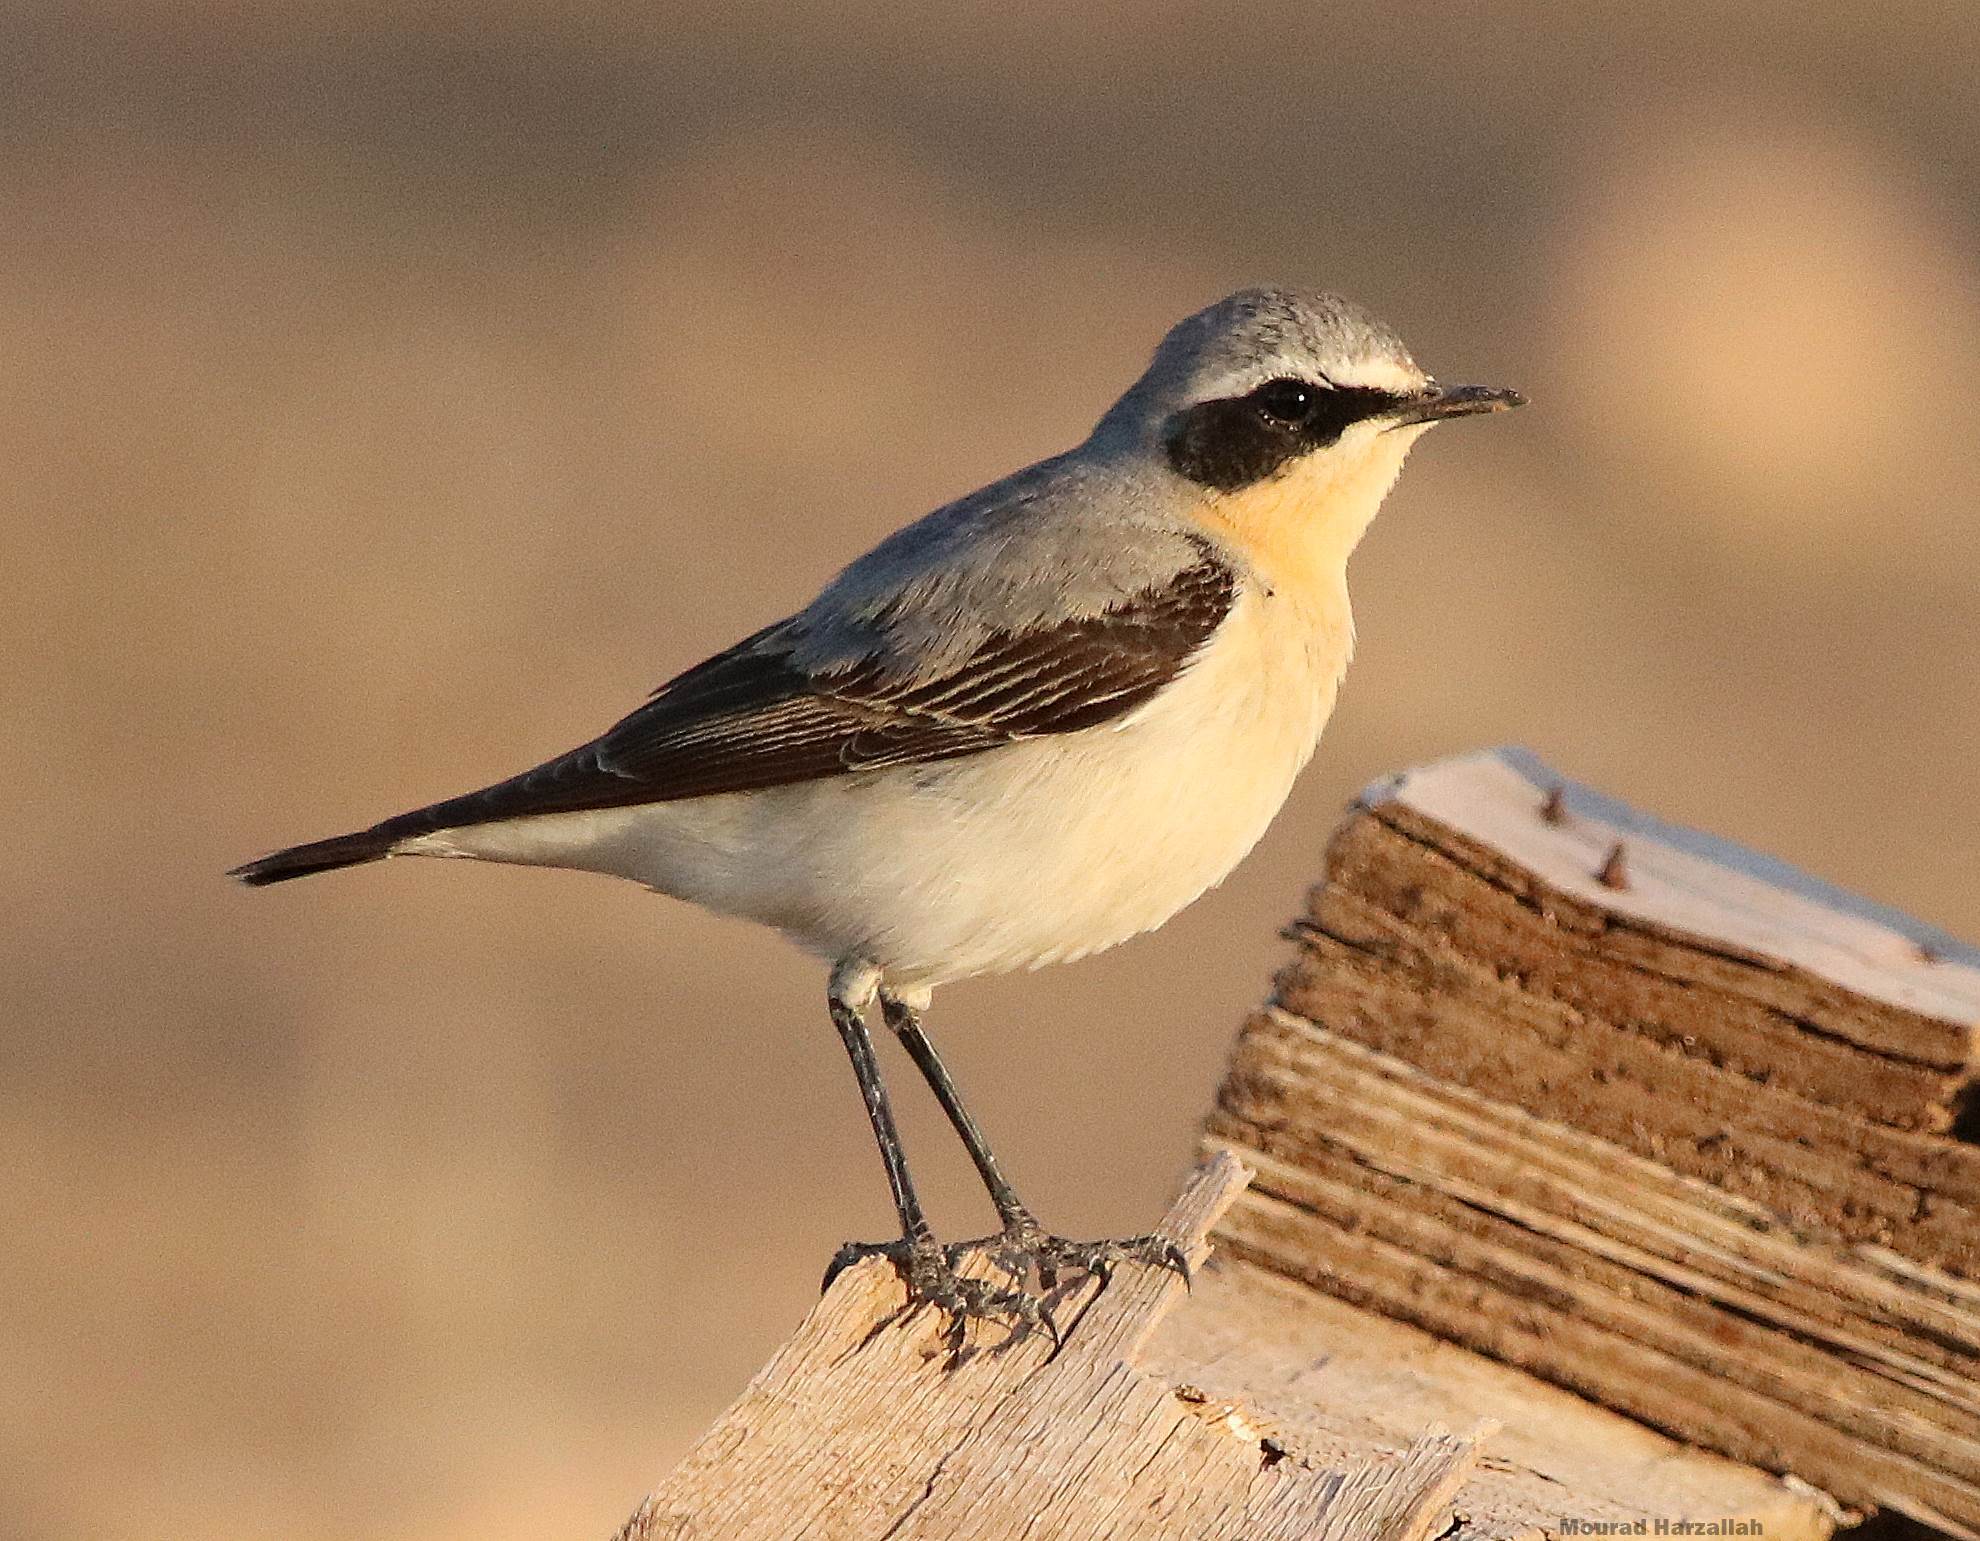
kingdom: Animalia
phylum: Chordata
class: Aves
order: Passeriformes
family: Muscicapidae
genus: Oenanthe
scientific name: Oenanthe oenanthe
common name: Northern wheatear
